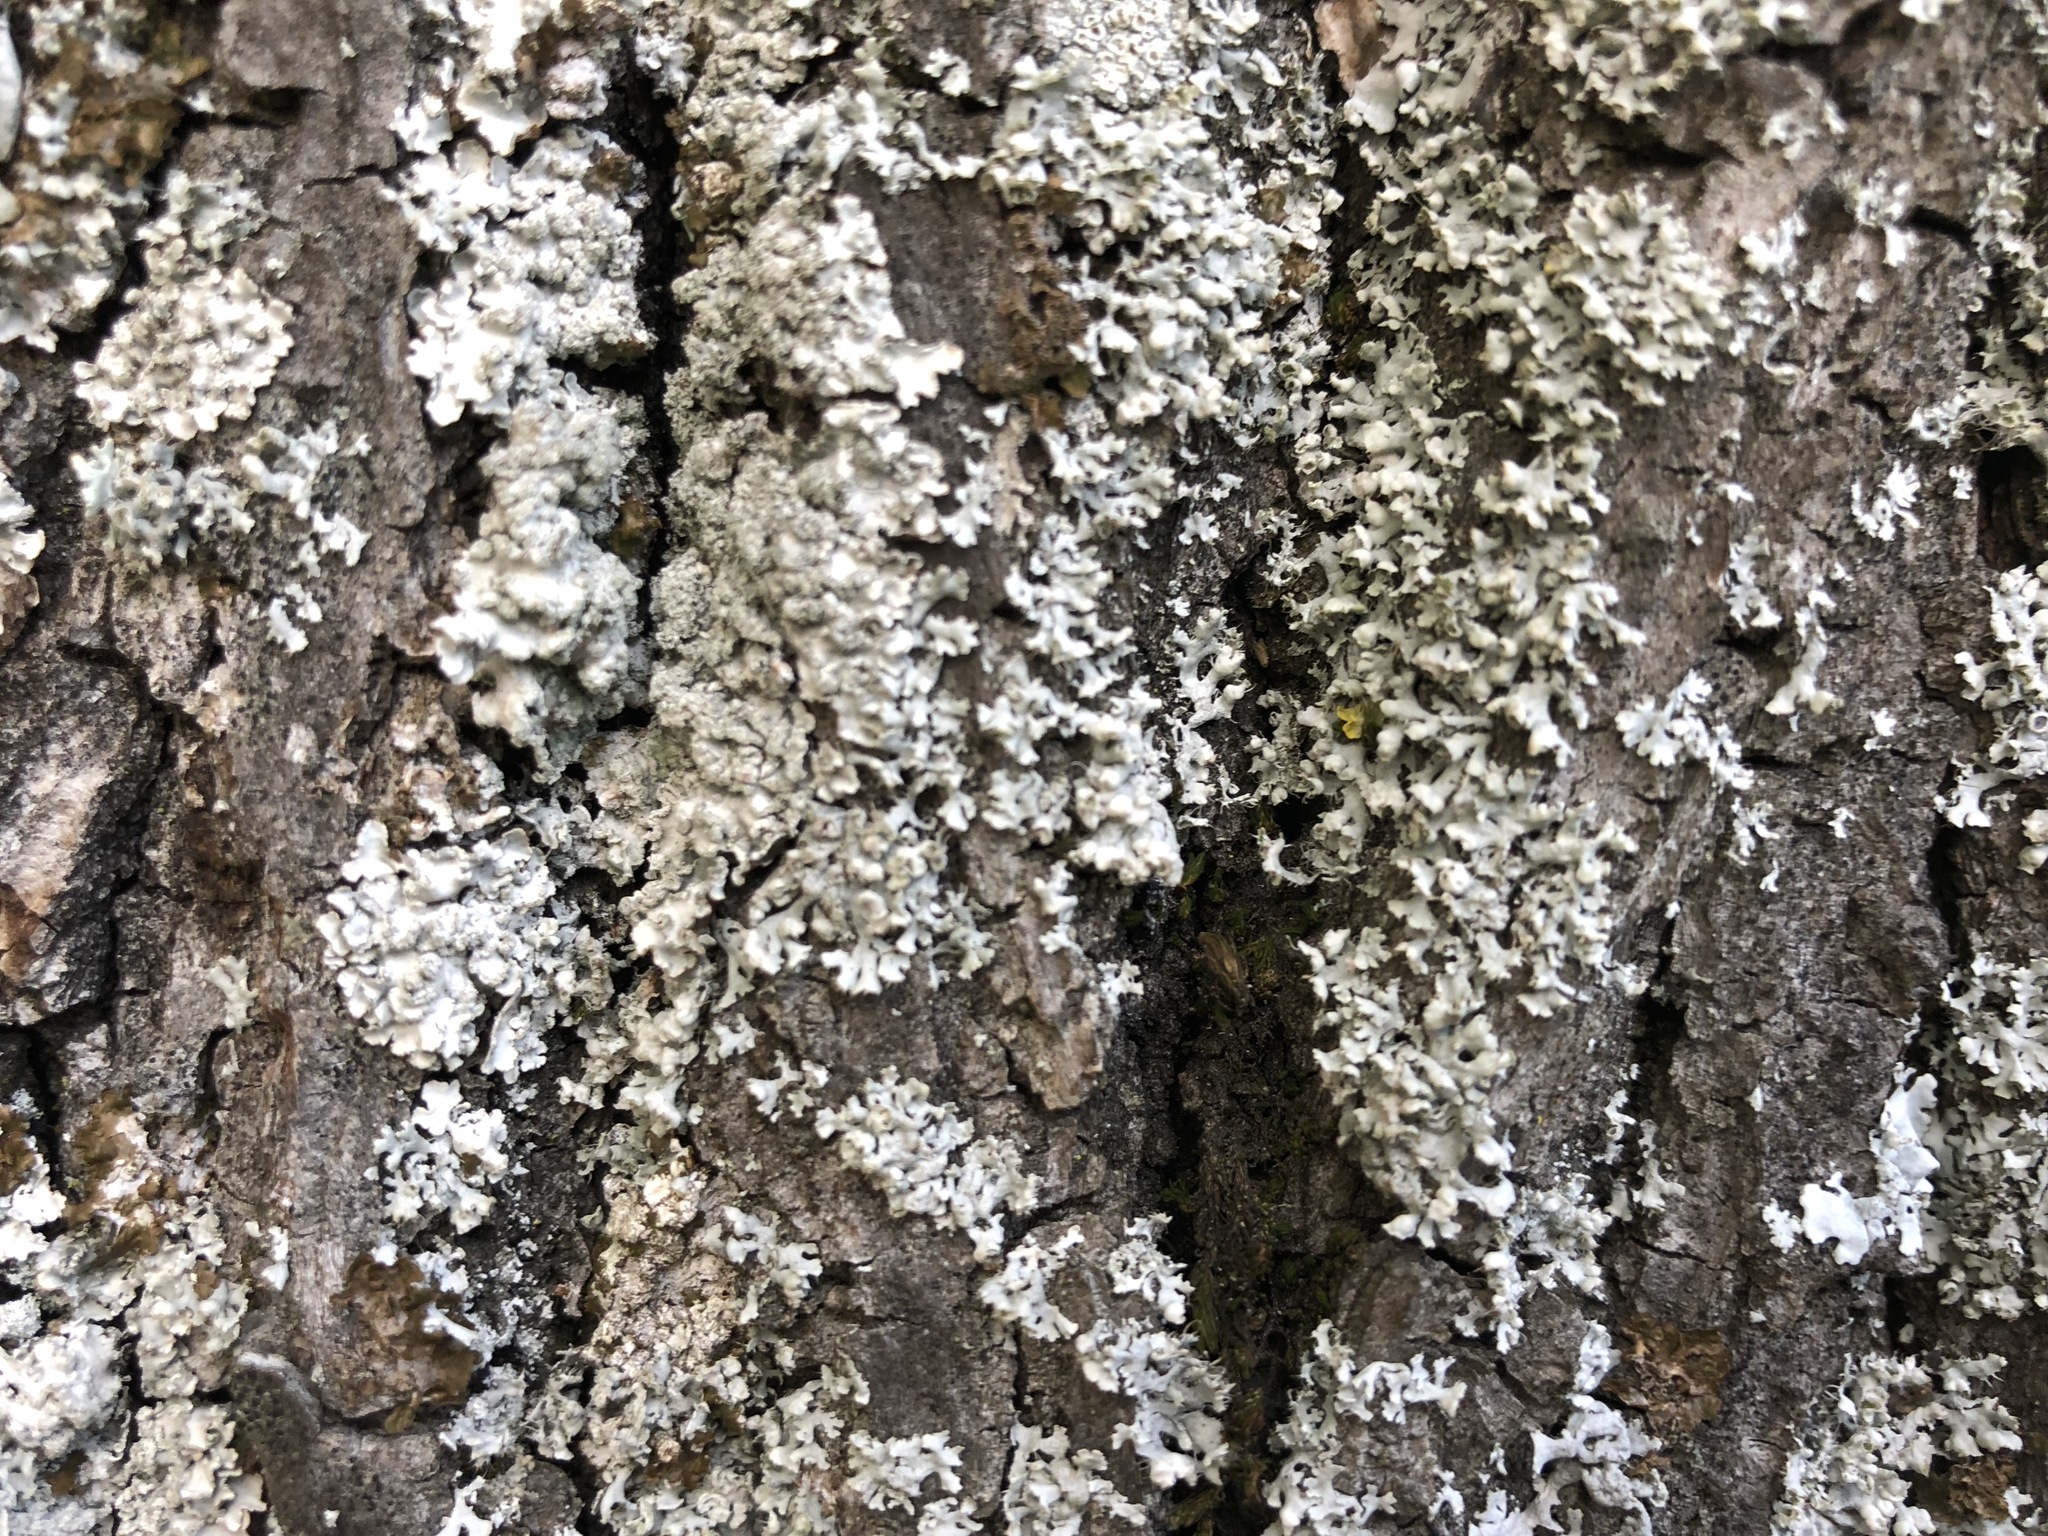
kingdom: Fungi
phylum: Ascomycota
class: Lecanoromycetes
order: Caliciales
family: Physciaceae
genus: Physcia
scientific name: Physcia adscendens
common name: Hooded rosette lichen
